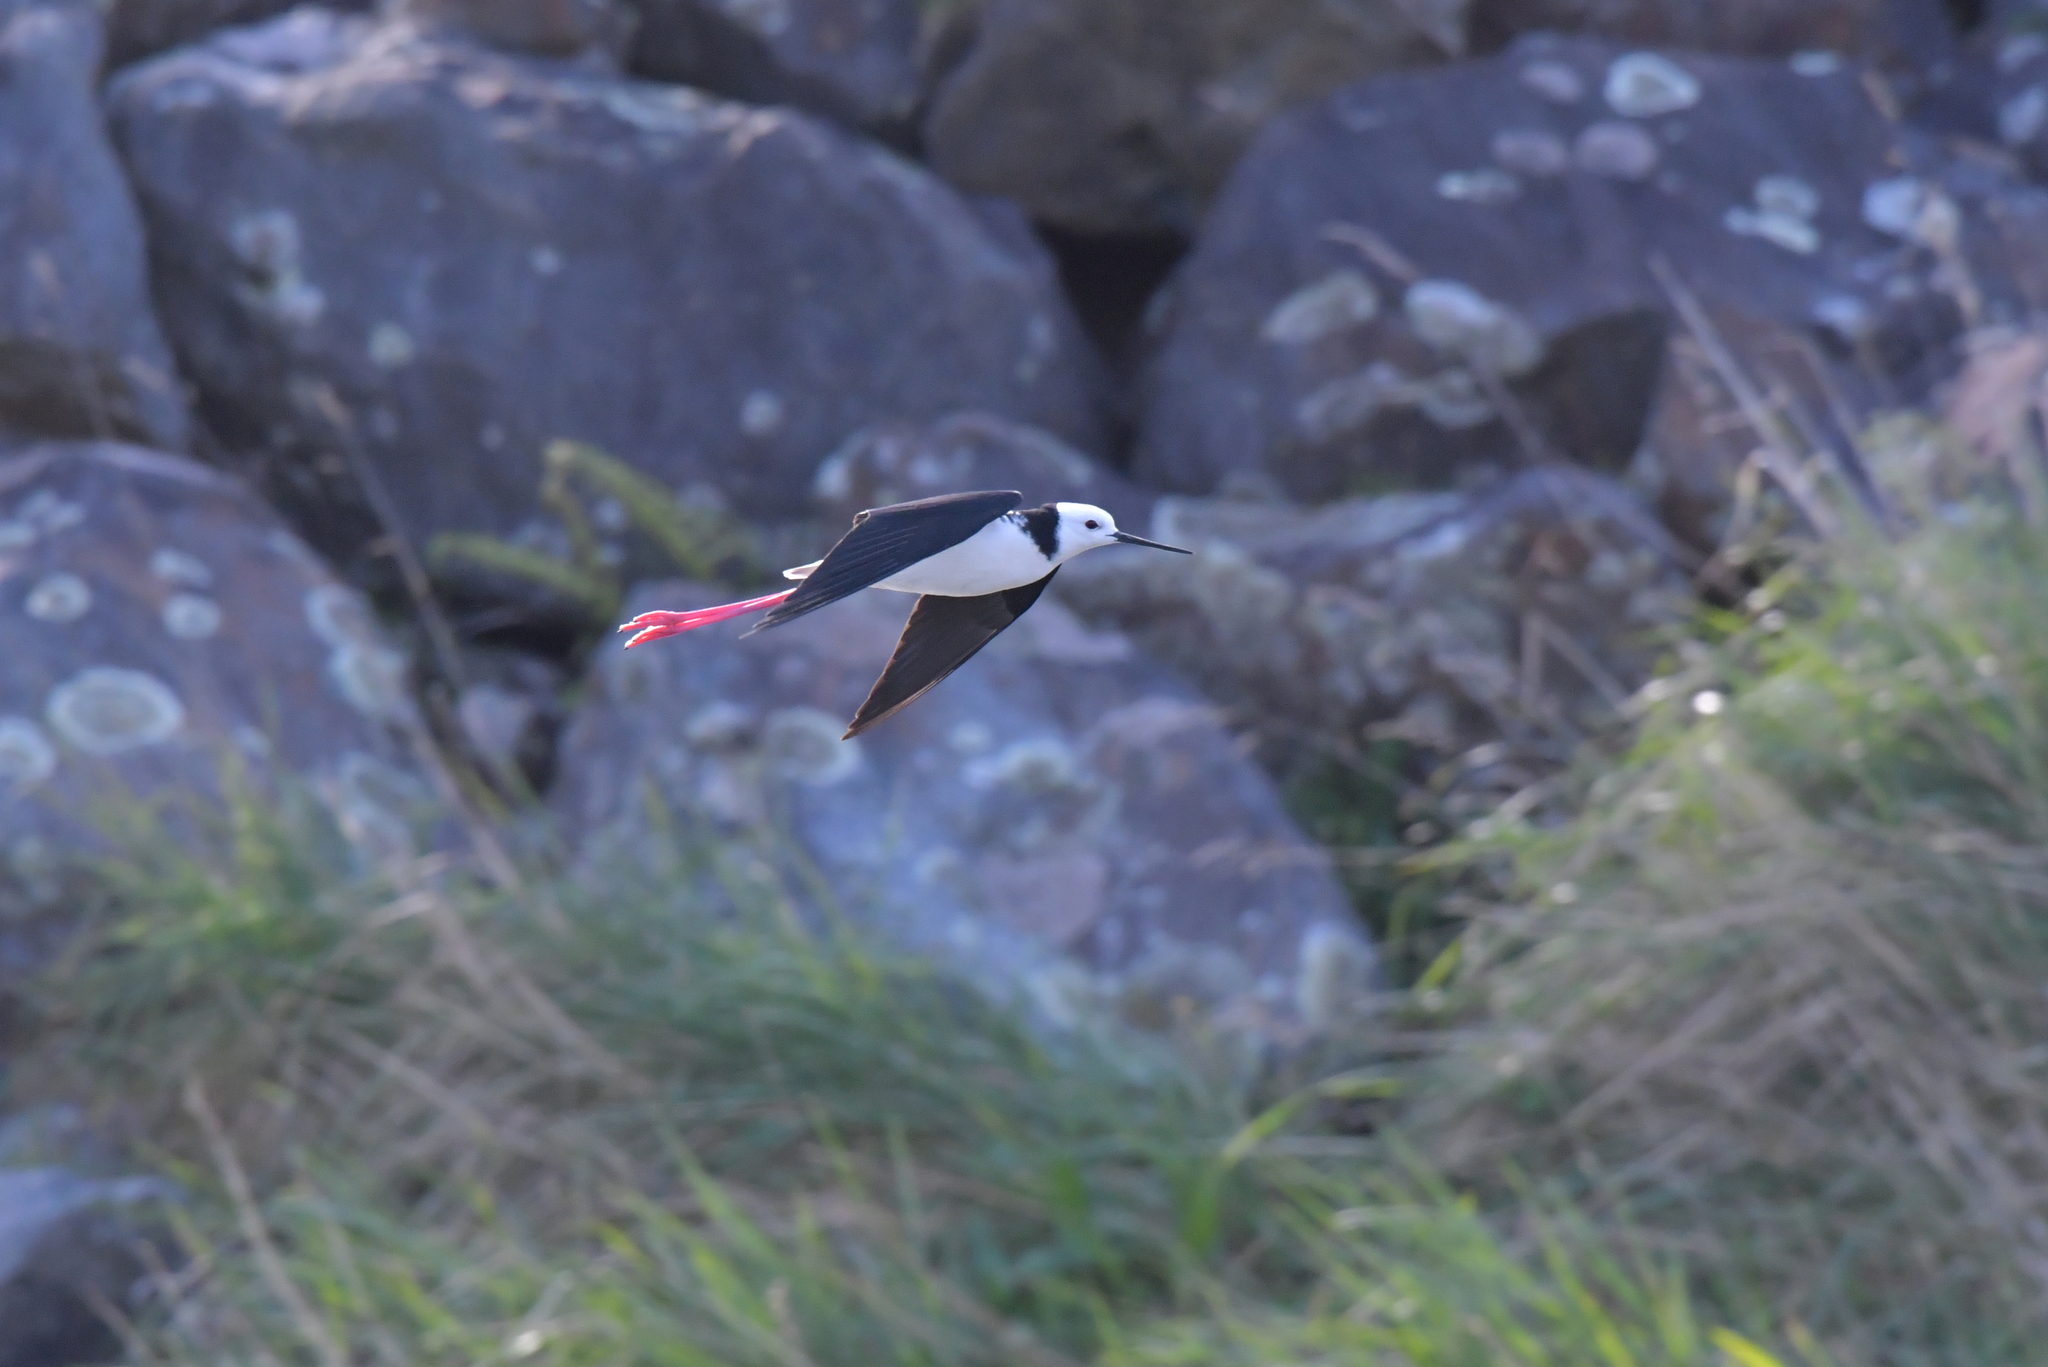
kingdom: Animalia
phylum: Chordata
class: Aves
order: Charadriiformes
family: Recurvirostridae
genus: Himantopus
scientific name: Himantopus leucocephalus
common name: White-headed stilt
